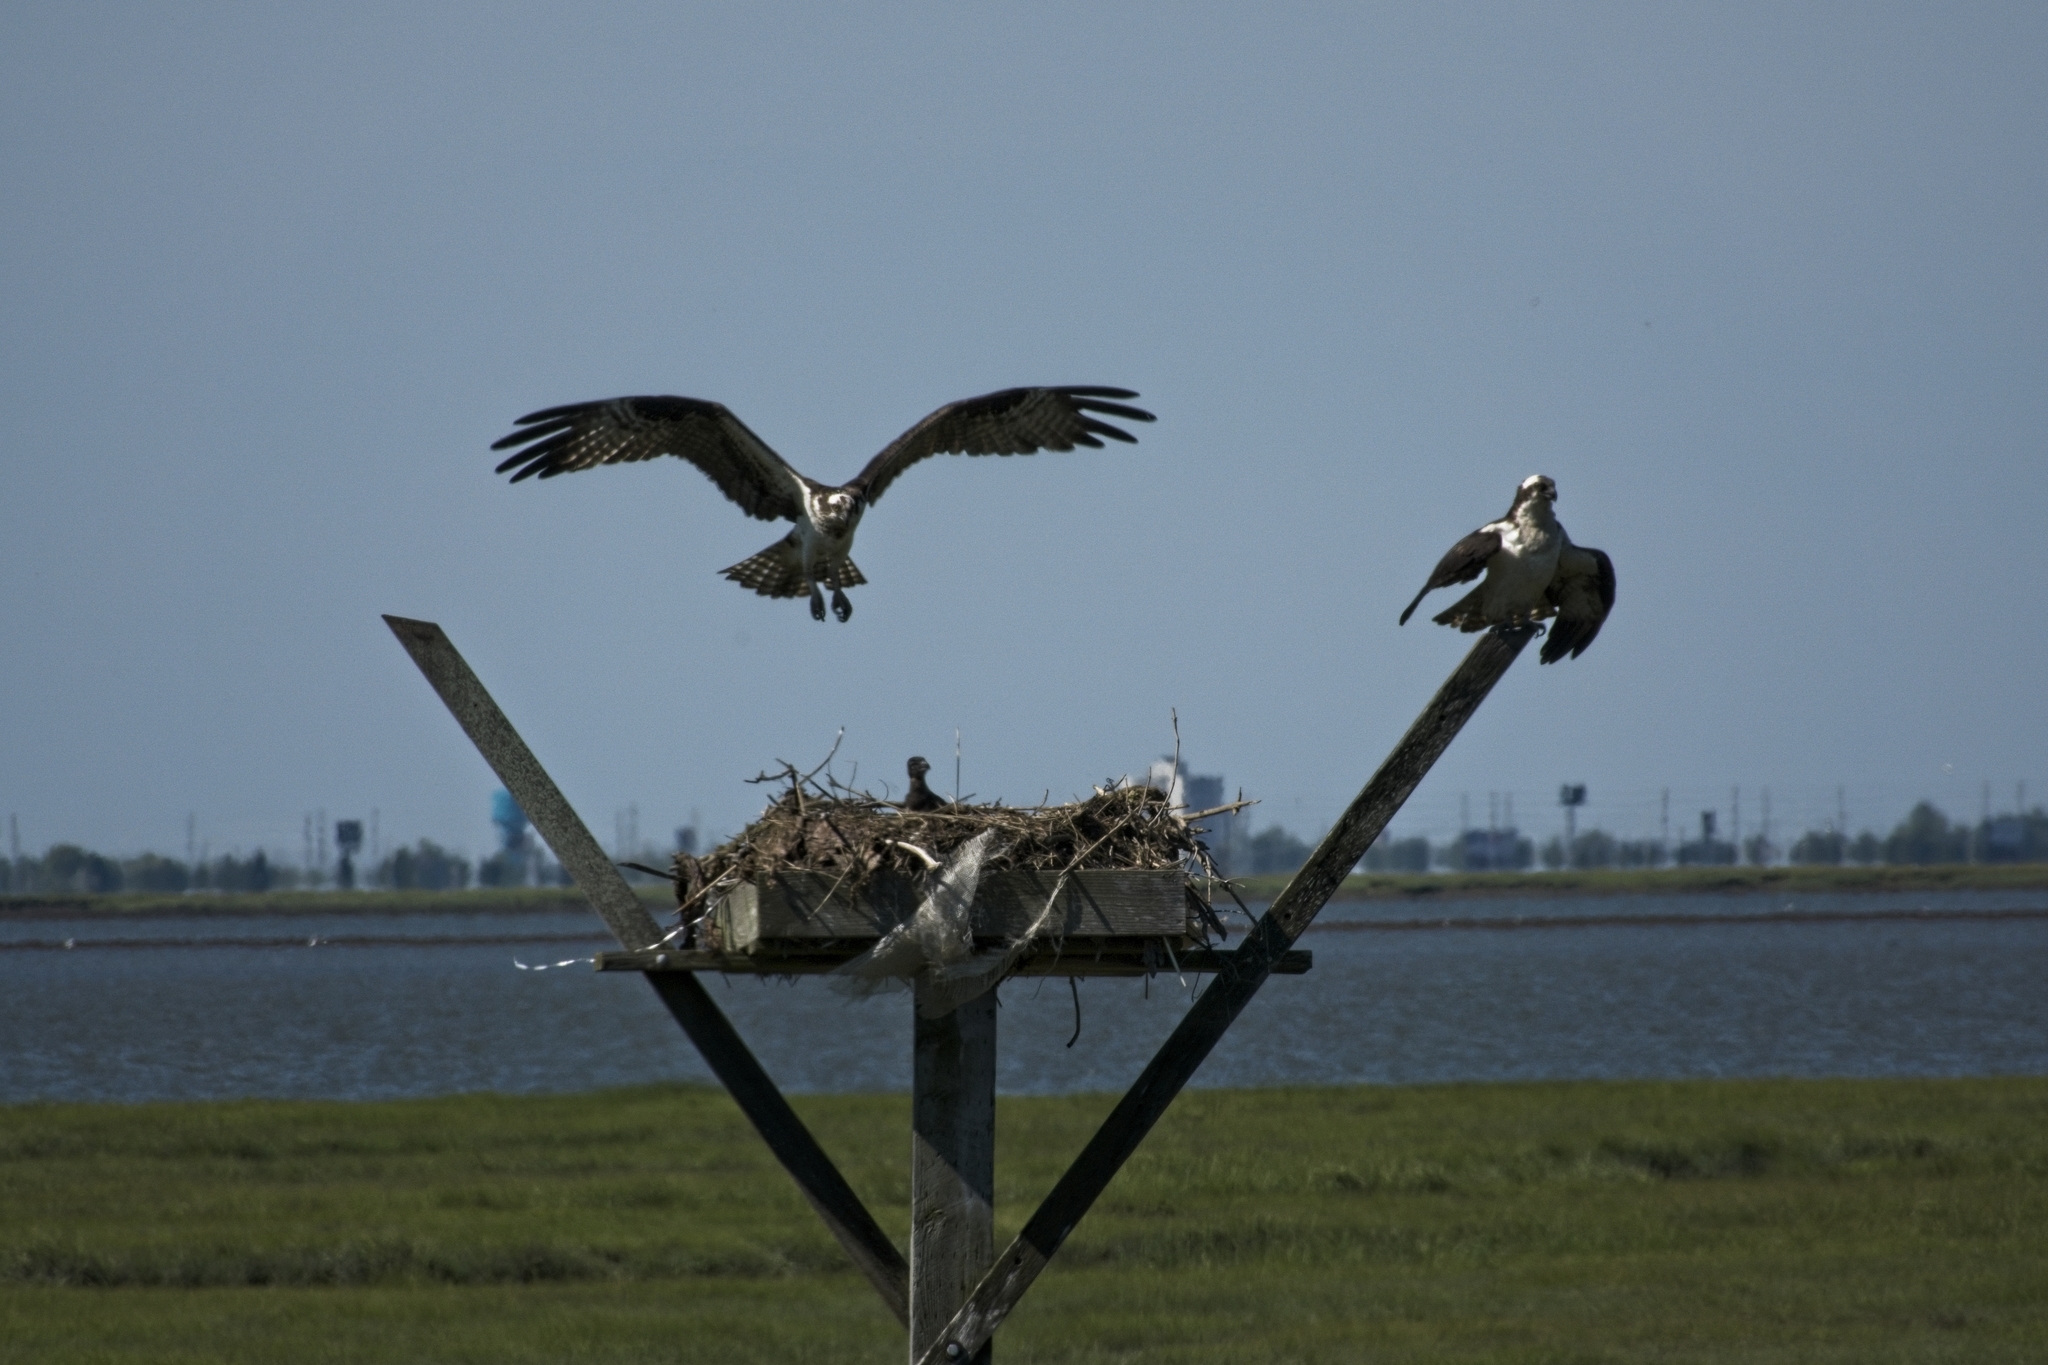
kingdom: Animalia
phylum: Chordata
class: Aves
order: Accipitriformes
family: Pandionidae
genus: Pandion
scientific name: Pandion haliaetus
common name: Osprey
